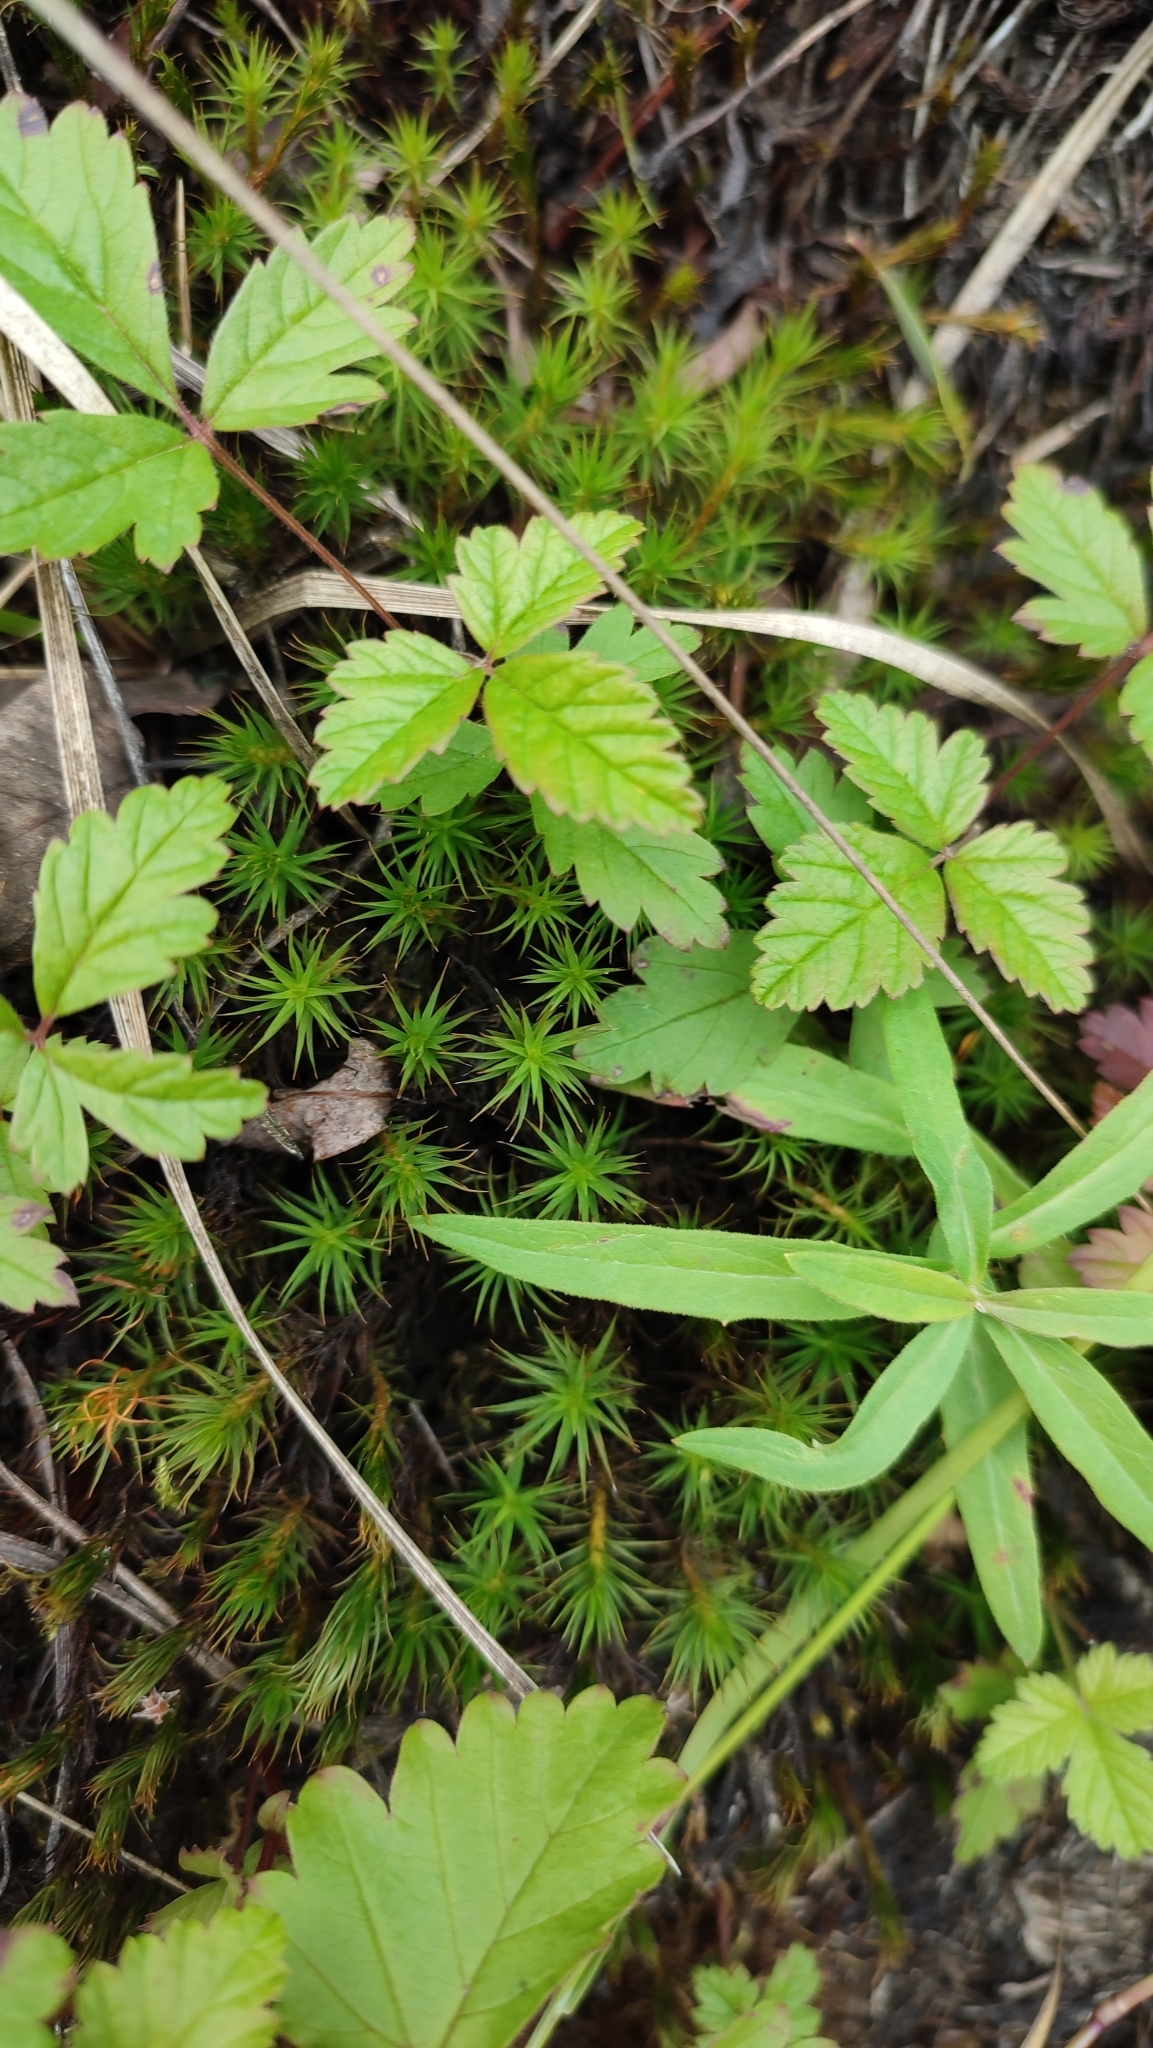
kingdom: Plantae
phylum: Tracheophyta
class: Magnoliopsida
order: Rosales
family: Rosaceae
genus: Rubus
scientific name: Rubus arcticus
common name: Arctic bramble
